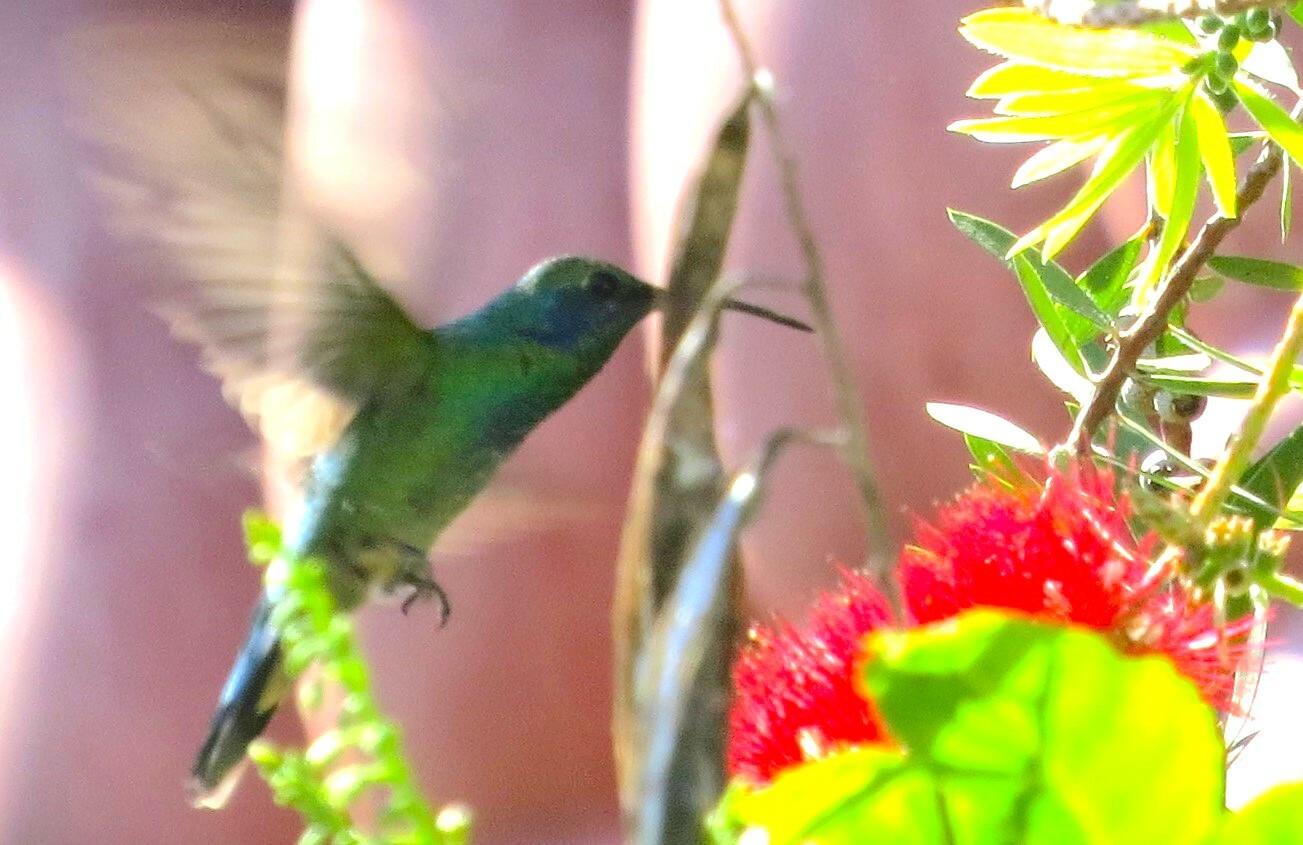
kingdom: Animalia
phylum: Chordata
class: Aves
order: Apodiformes
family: Trochilidae
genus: Colibri
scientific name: Colibri thalassinus
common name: Green violetear
